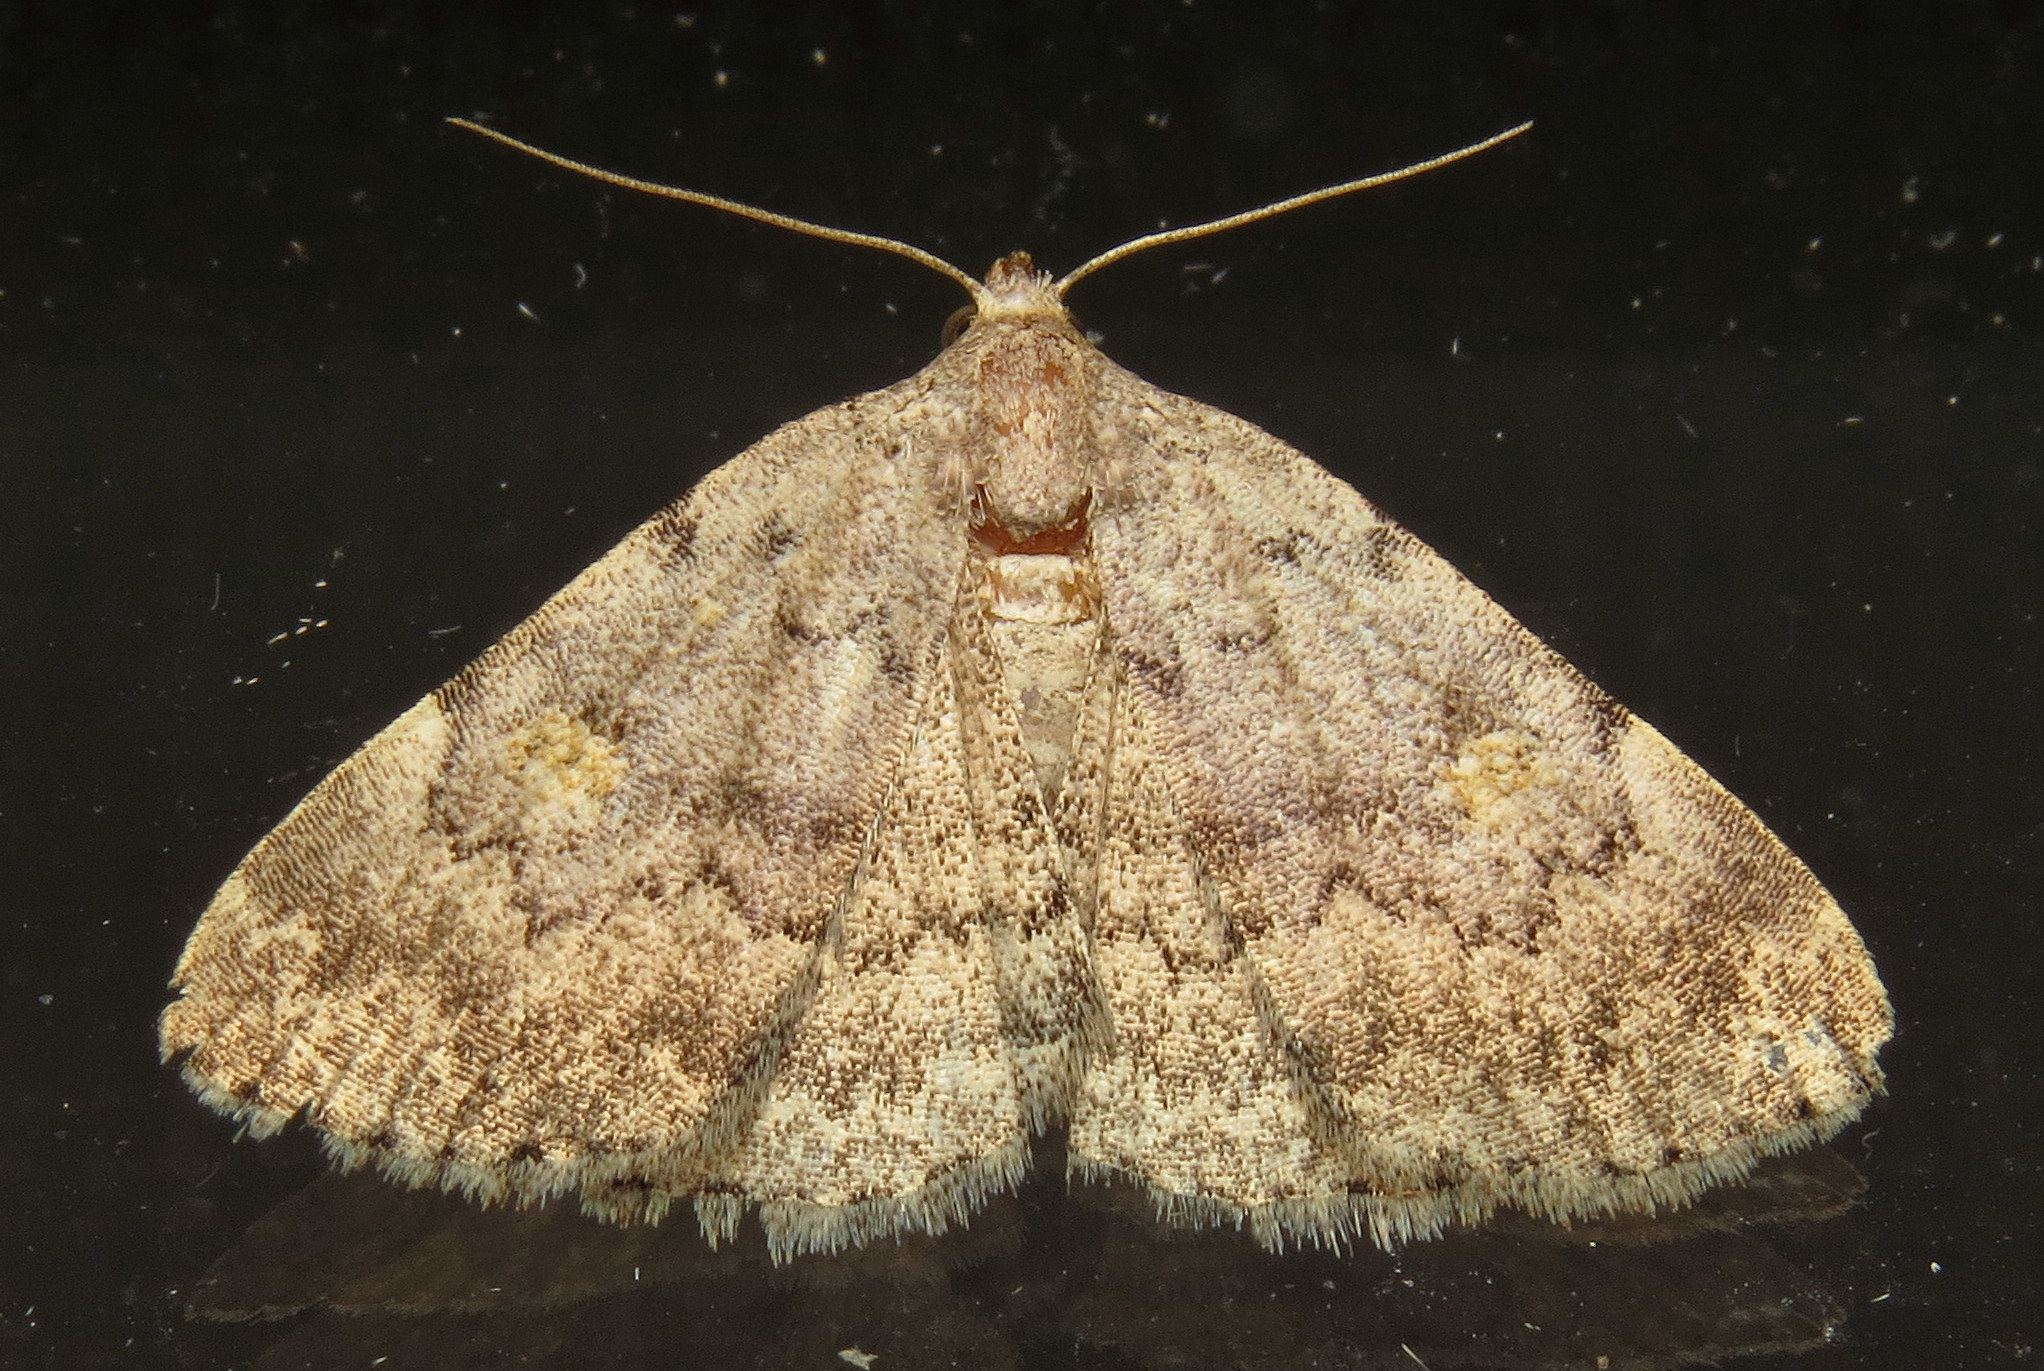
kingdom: Animalia
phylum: Arthropoda
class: Insecta
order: Lepidoptera
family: Erebidae
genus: Idia
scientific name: Idia aemula
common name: Common idia moth
